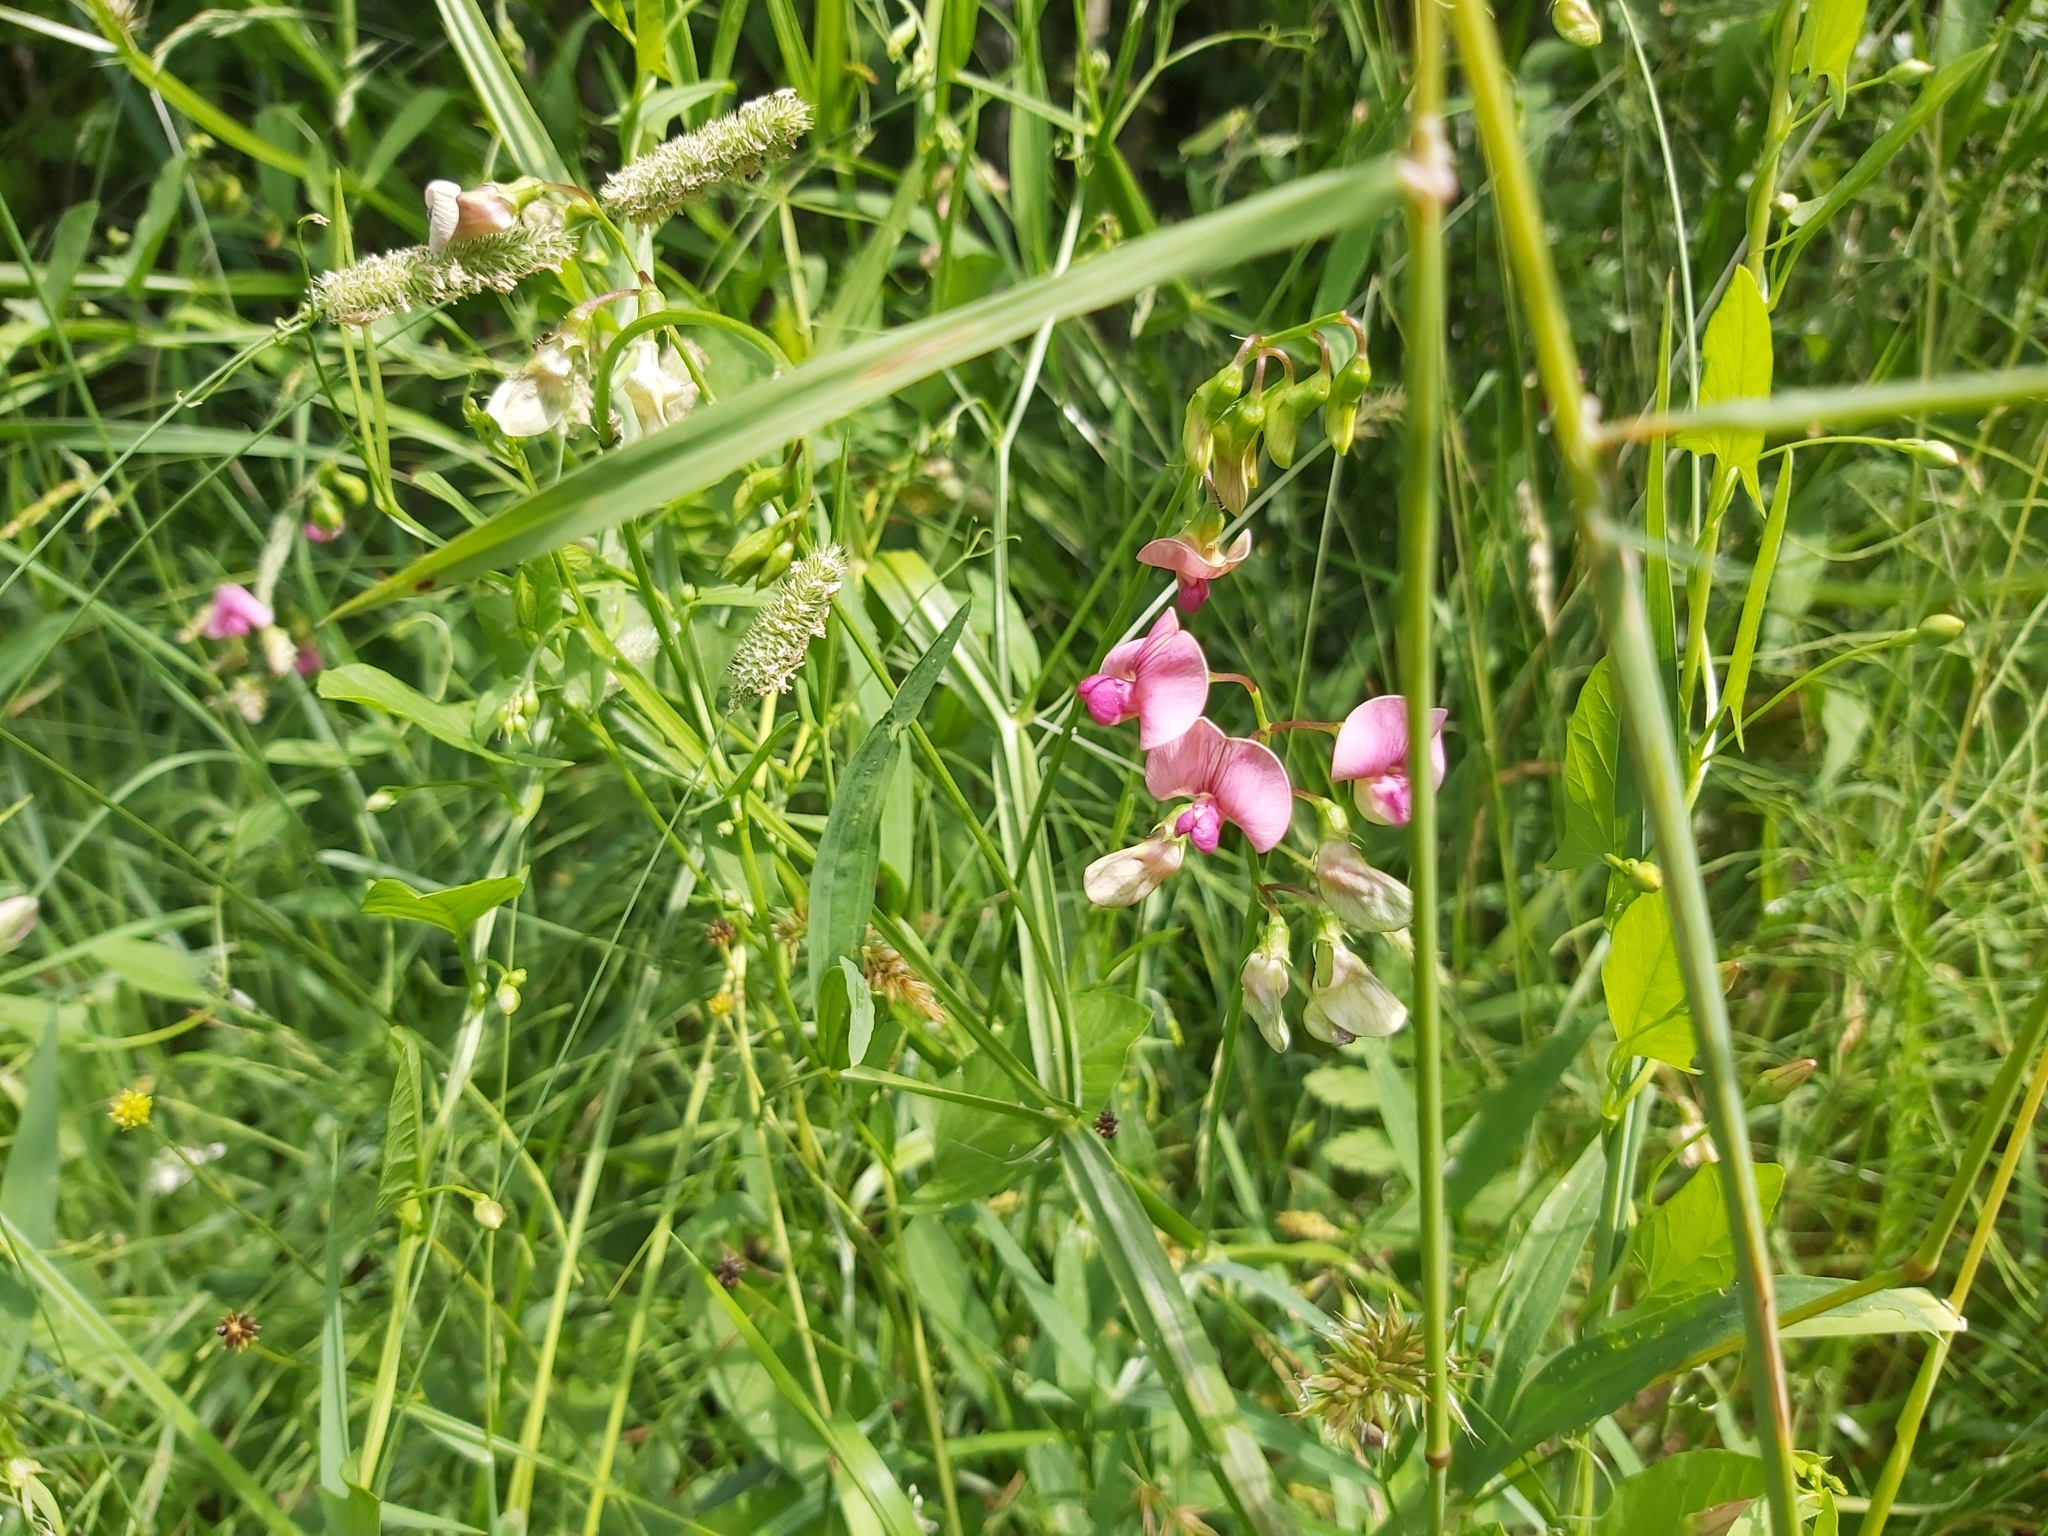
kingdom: Plantae
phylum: Tracheophyta
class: Magnoliopsida
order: Fabales
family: Fabaceae
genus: Lathyrus
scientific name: Lathyrus sylvestris
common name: Flat pea
